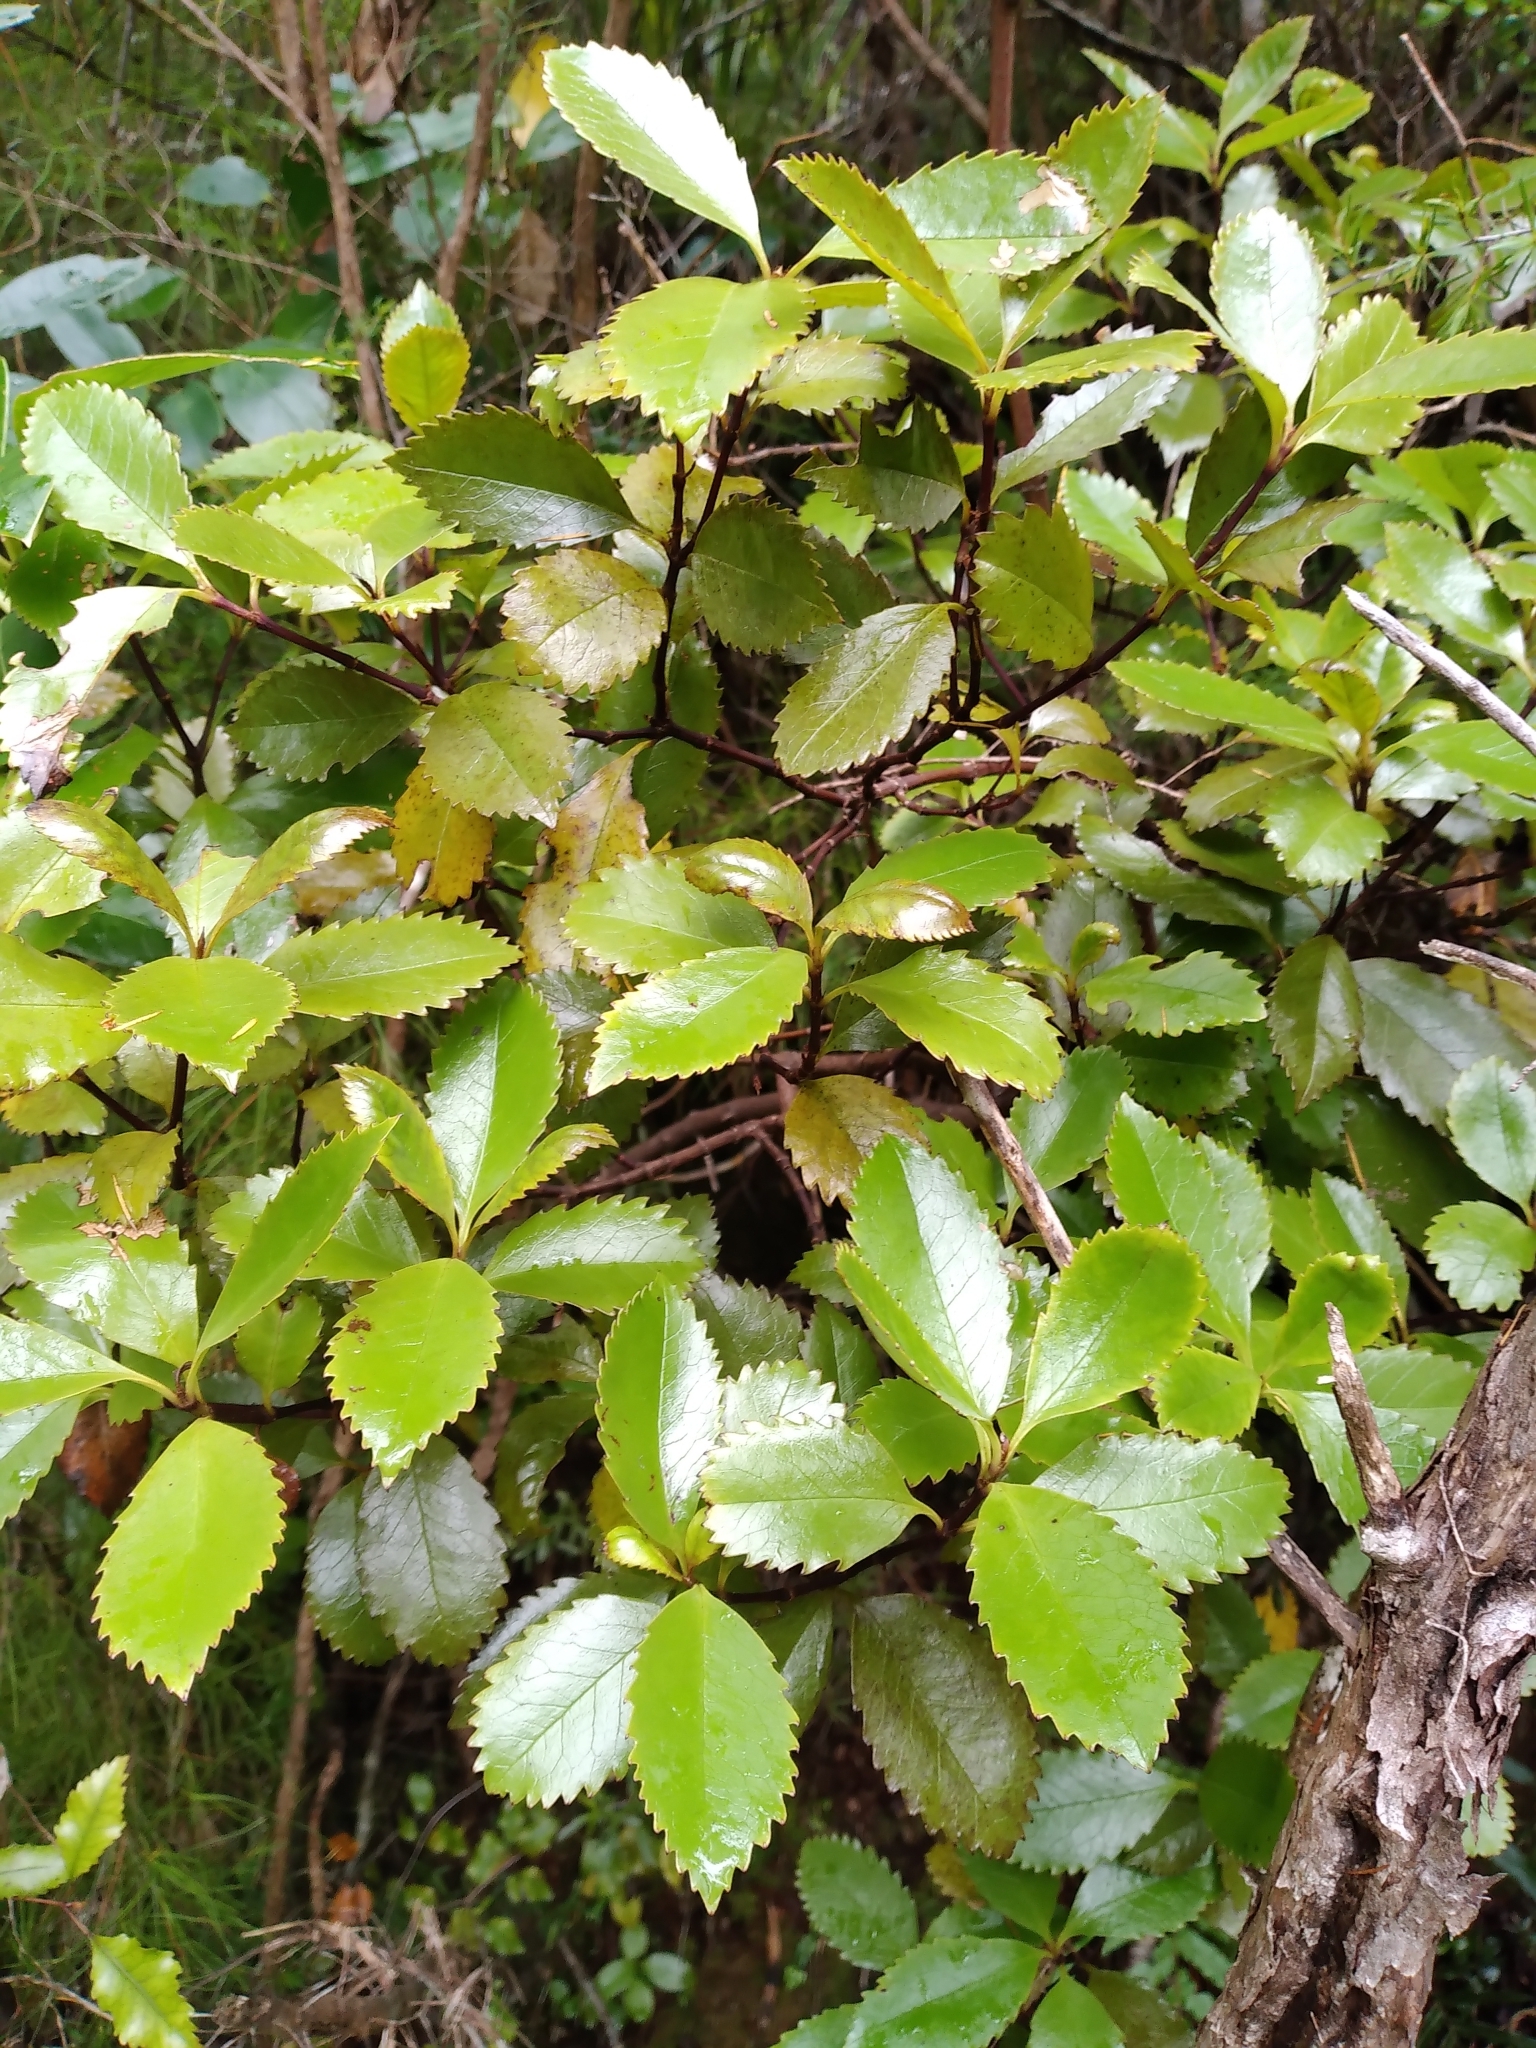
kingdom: Plantae
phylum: Tracheophyta
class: Magnoliopsida
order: Chloranthales
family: Chloranthaceae
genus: Ascarina
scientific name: Ascarina lucida
